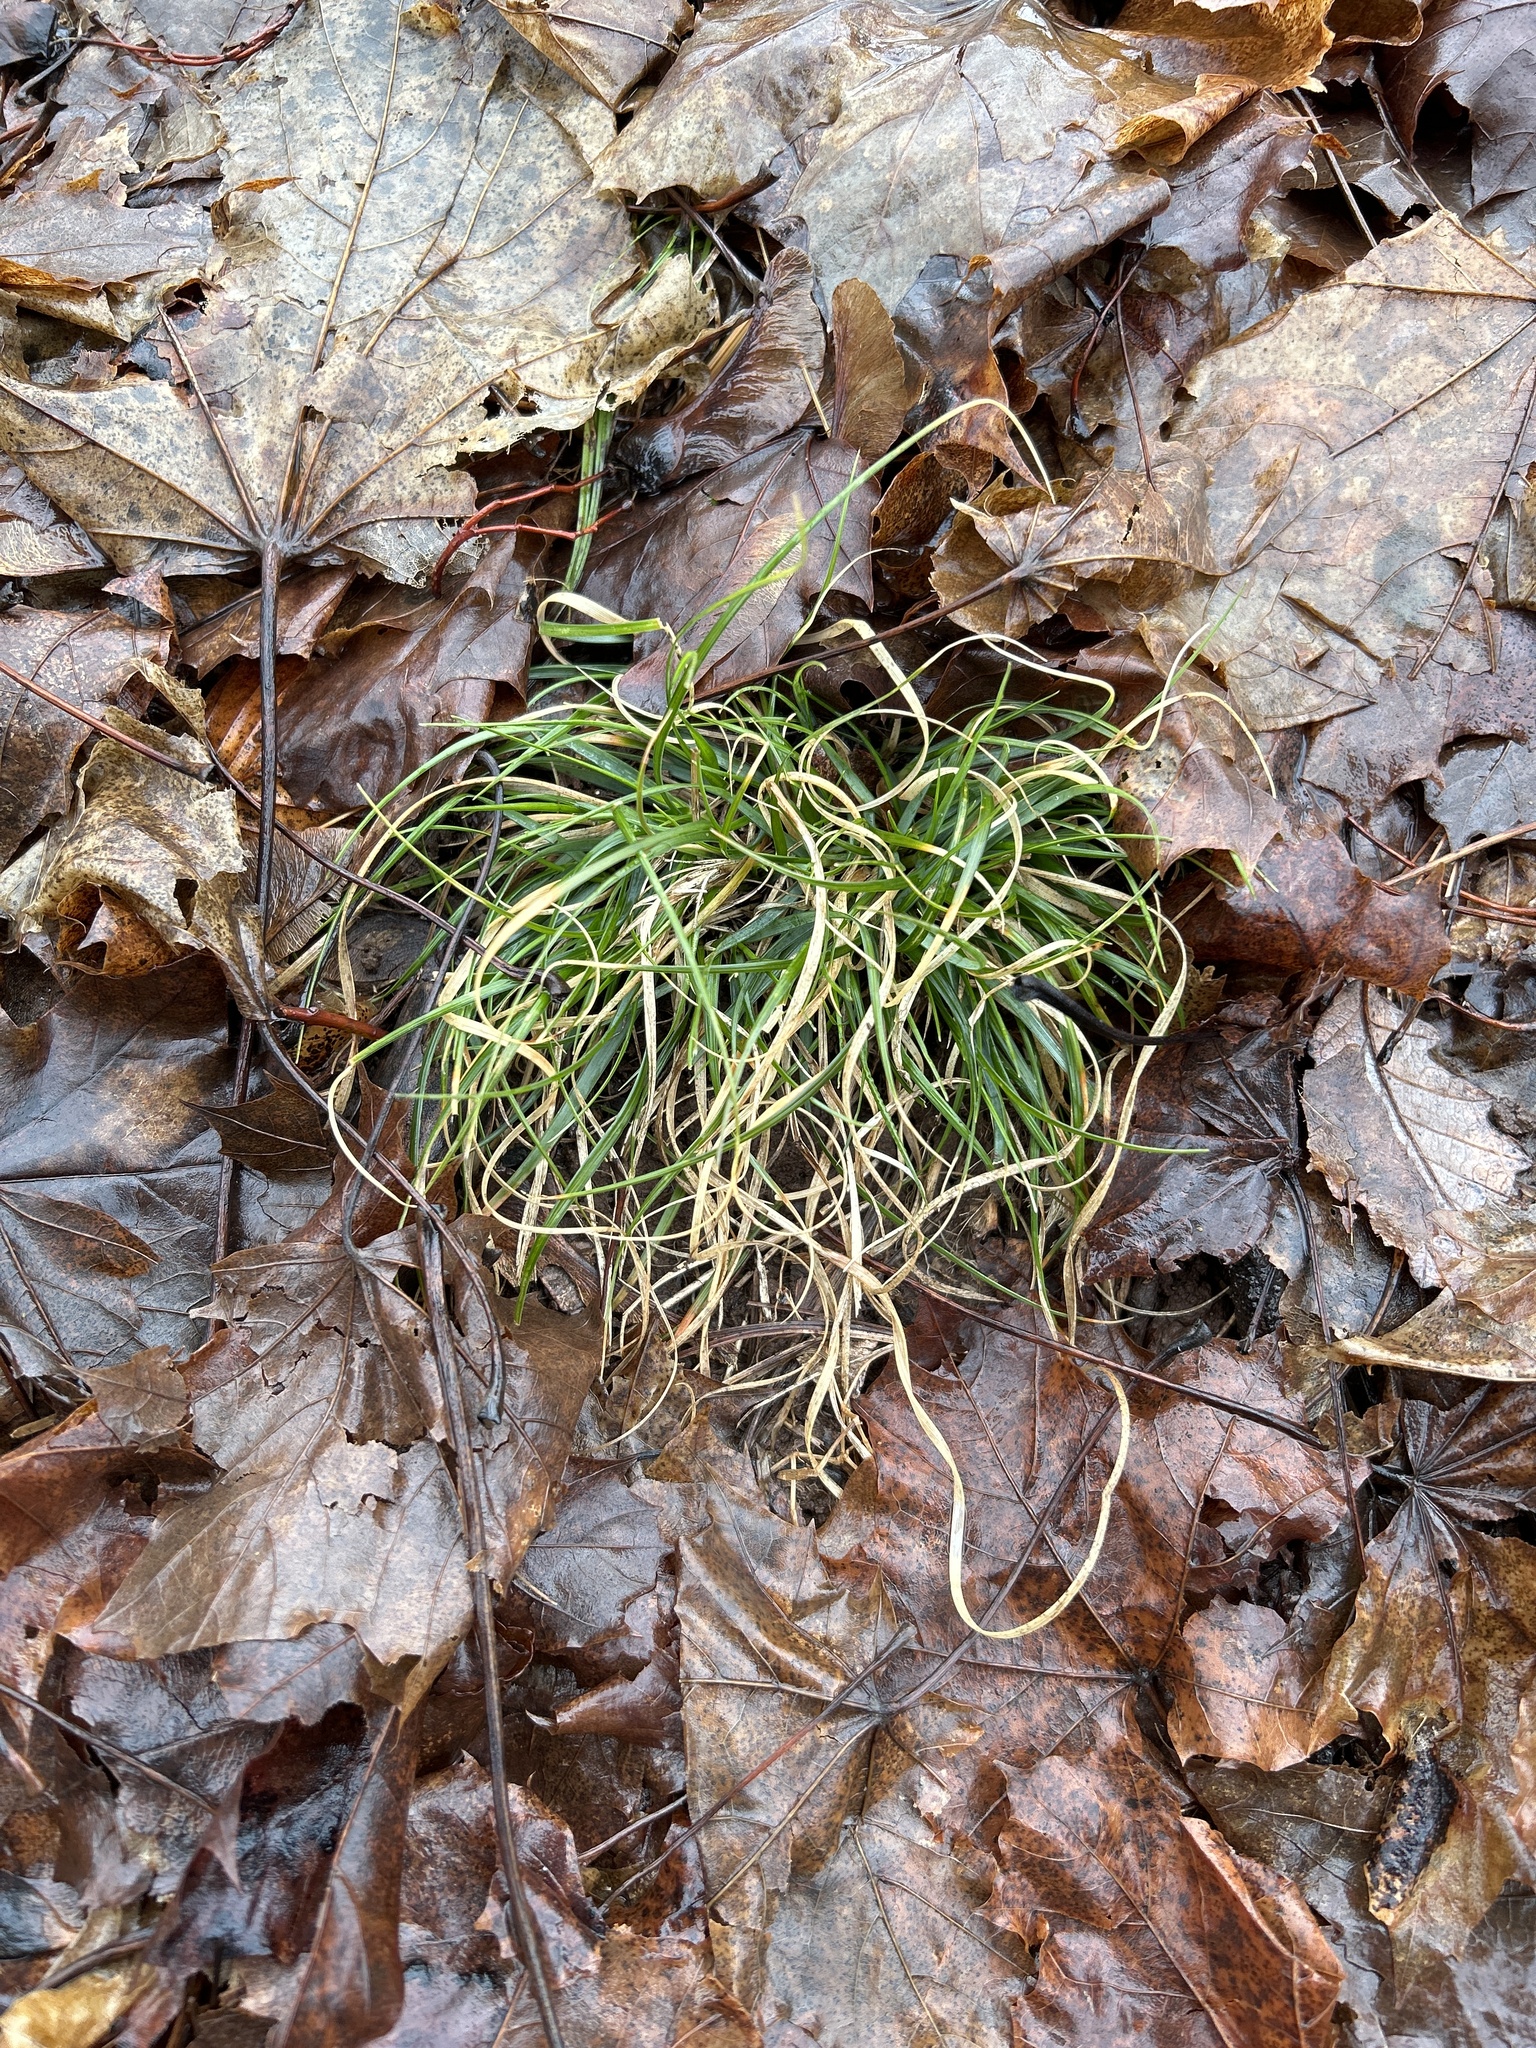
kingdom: Plantae
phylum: Tracheophyta
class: Liliopsida
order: Poales
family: Poaceae
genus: Danthonia
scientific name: Danthonia spicata
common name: Common wild oatgrass
